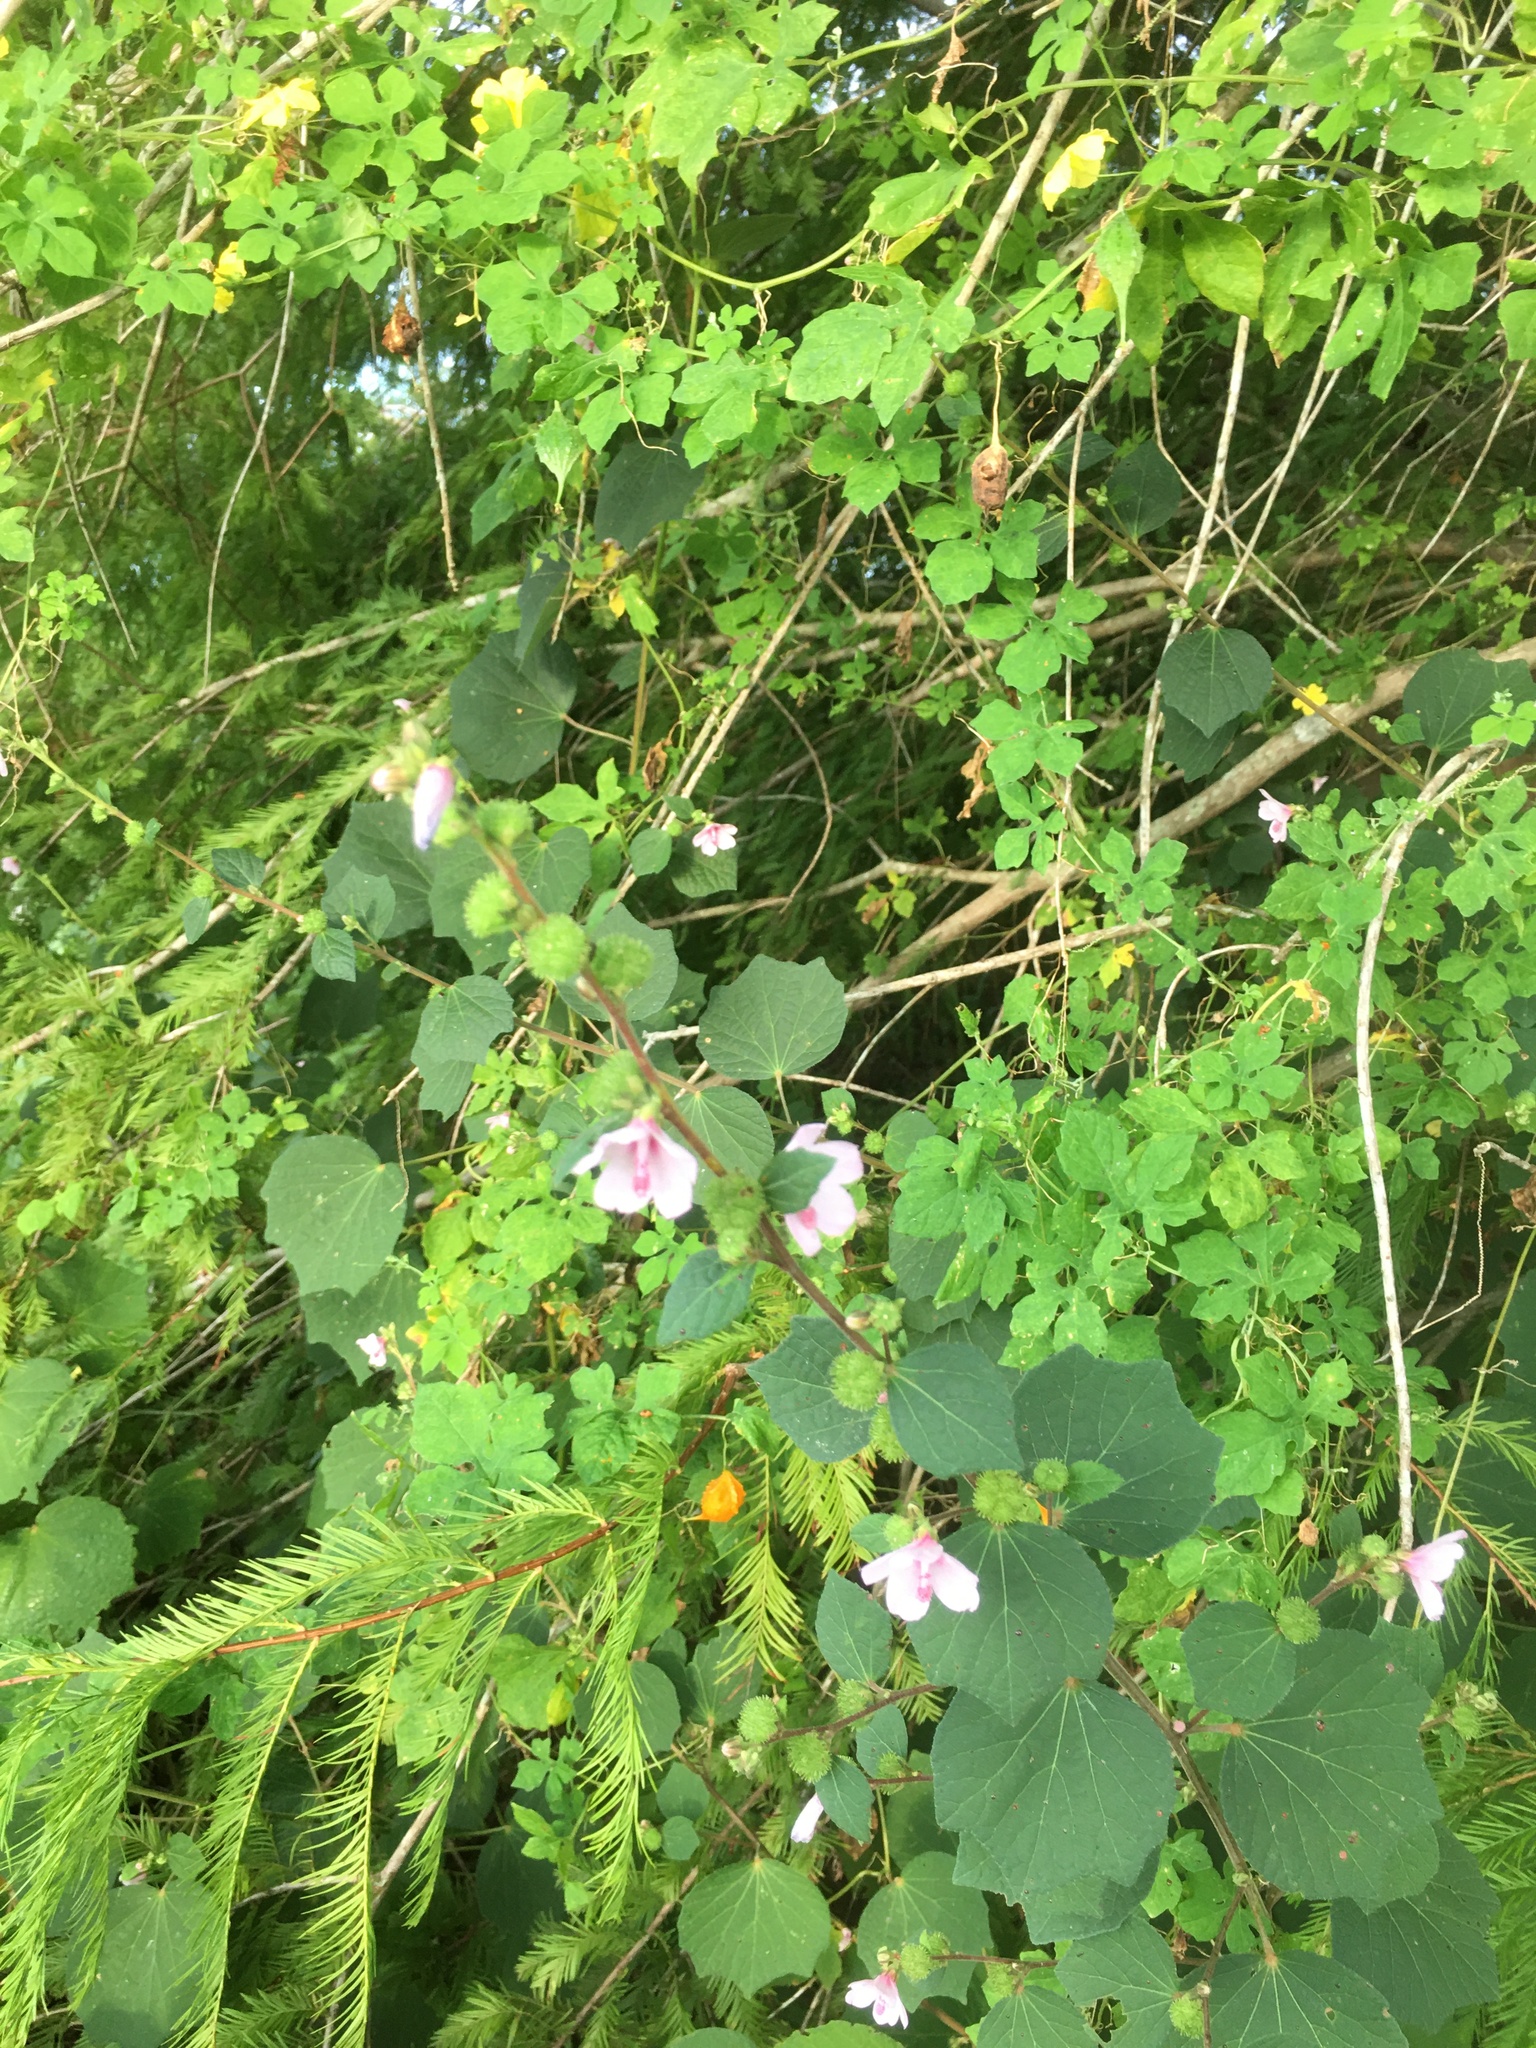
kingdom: Plantae
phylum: Tracheophyta
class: Magnoliopsida
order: Malvales
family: Malvaceae
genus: Urena
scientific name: Urena lobata
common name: Caesarweed
